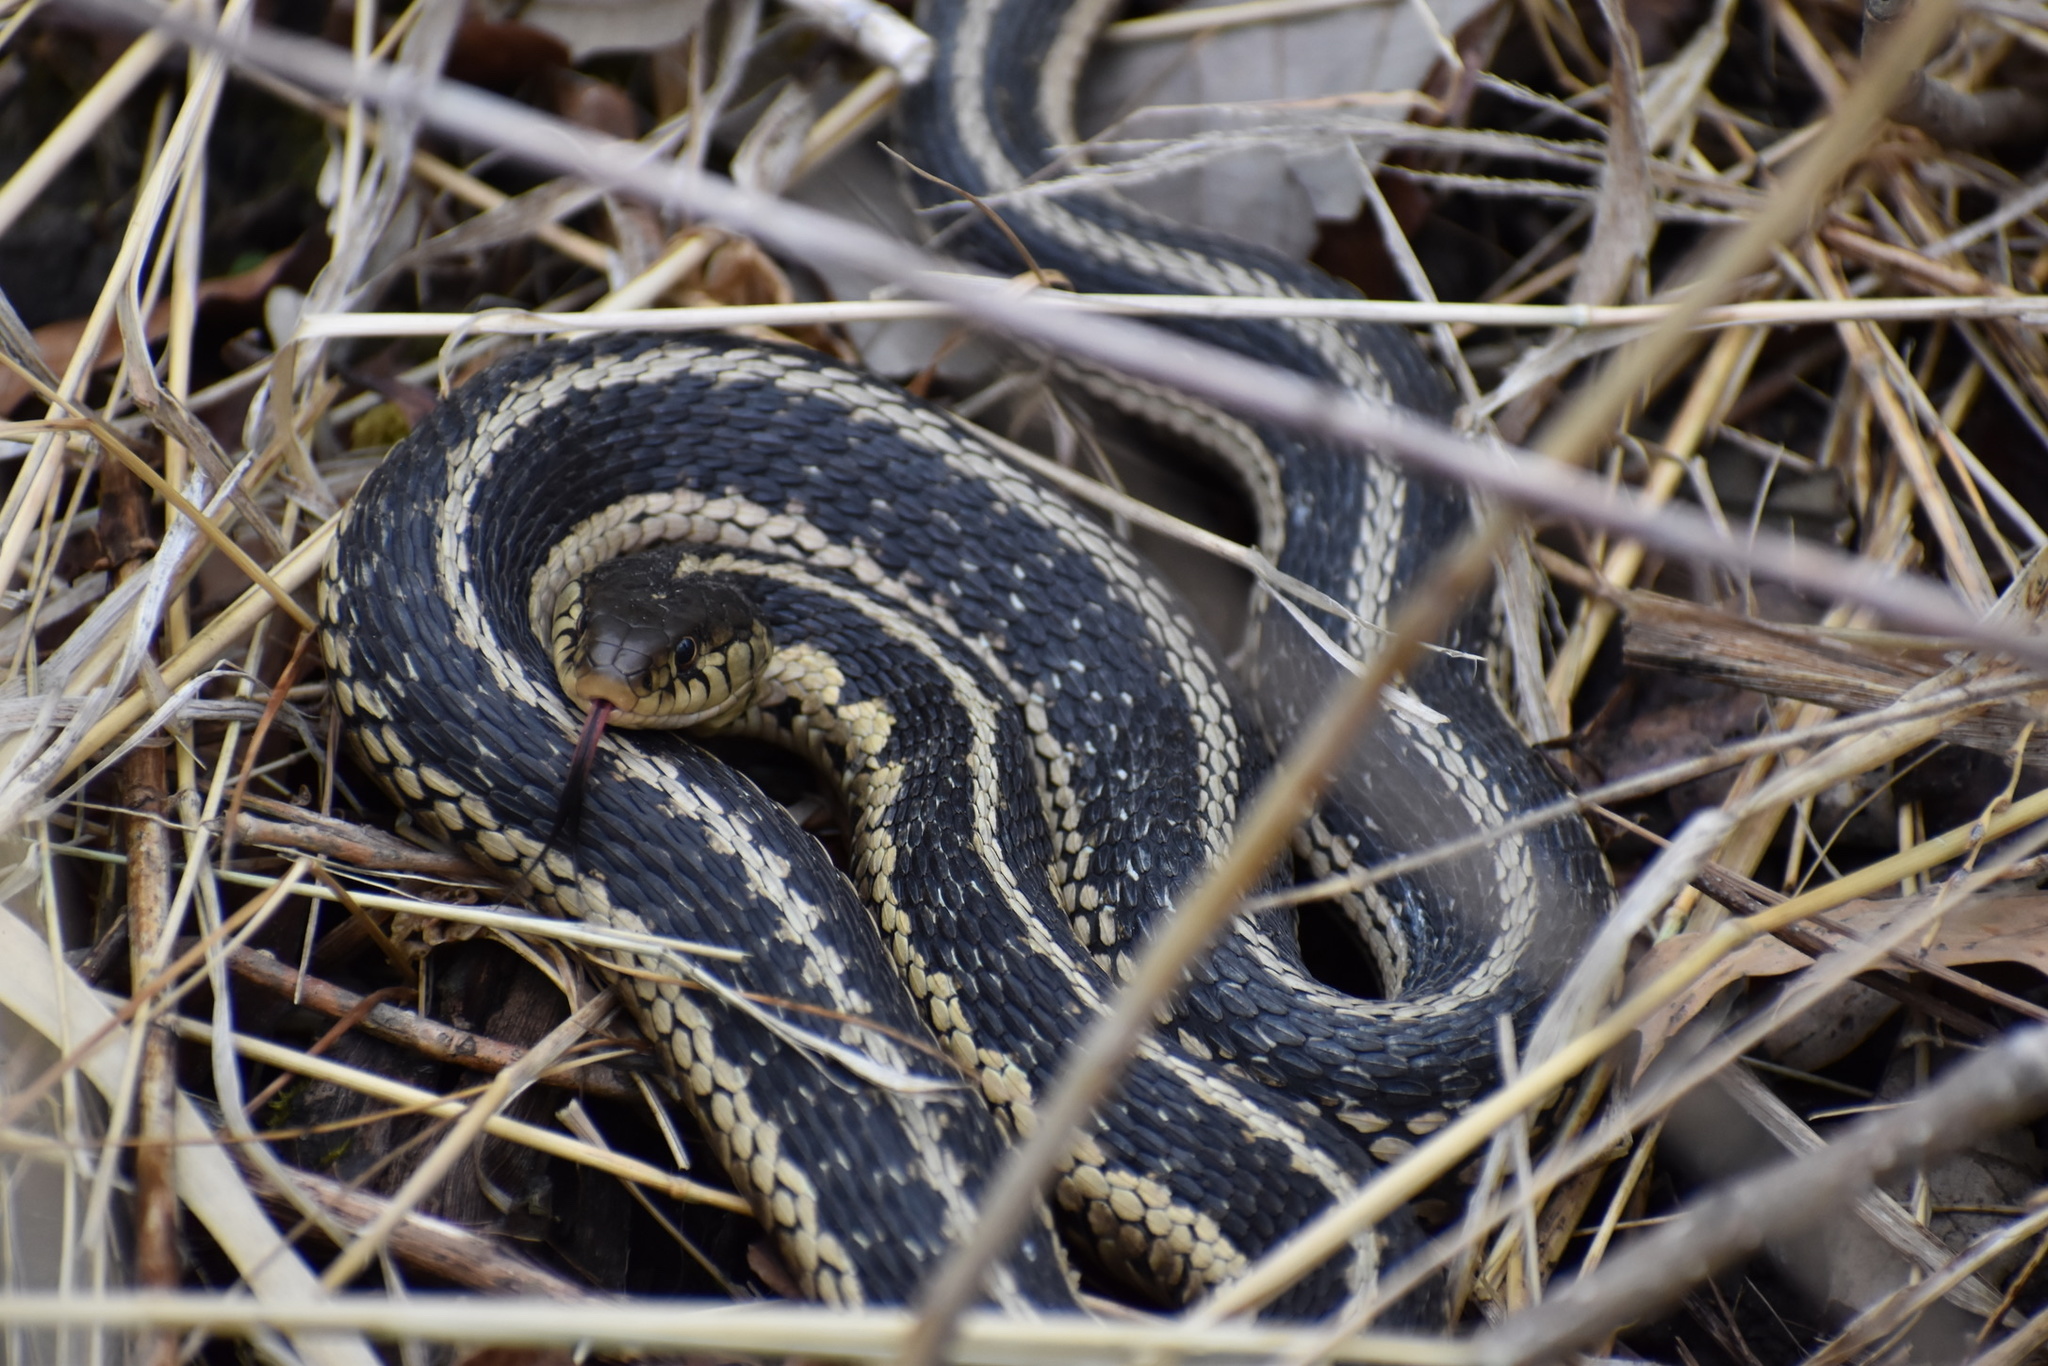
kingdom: Animalia
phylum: Chordata
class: Squamata
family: Colubridae
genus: Thamnophis
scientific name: Thamnophis sirtalis
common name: Common garter snake
